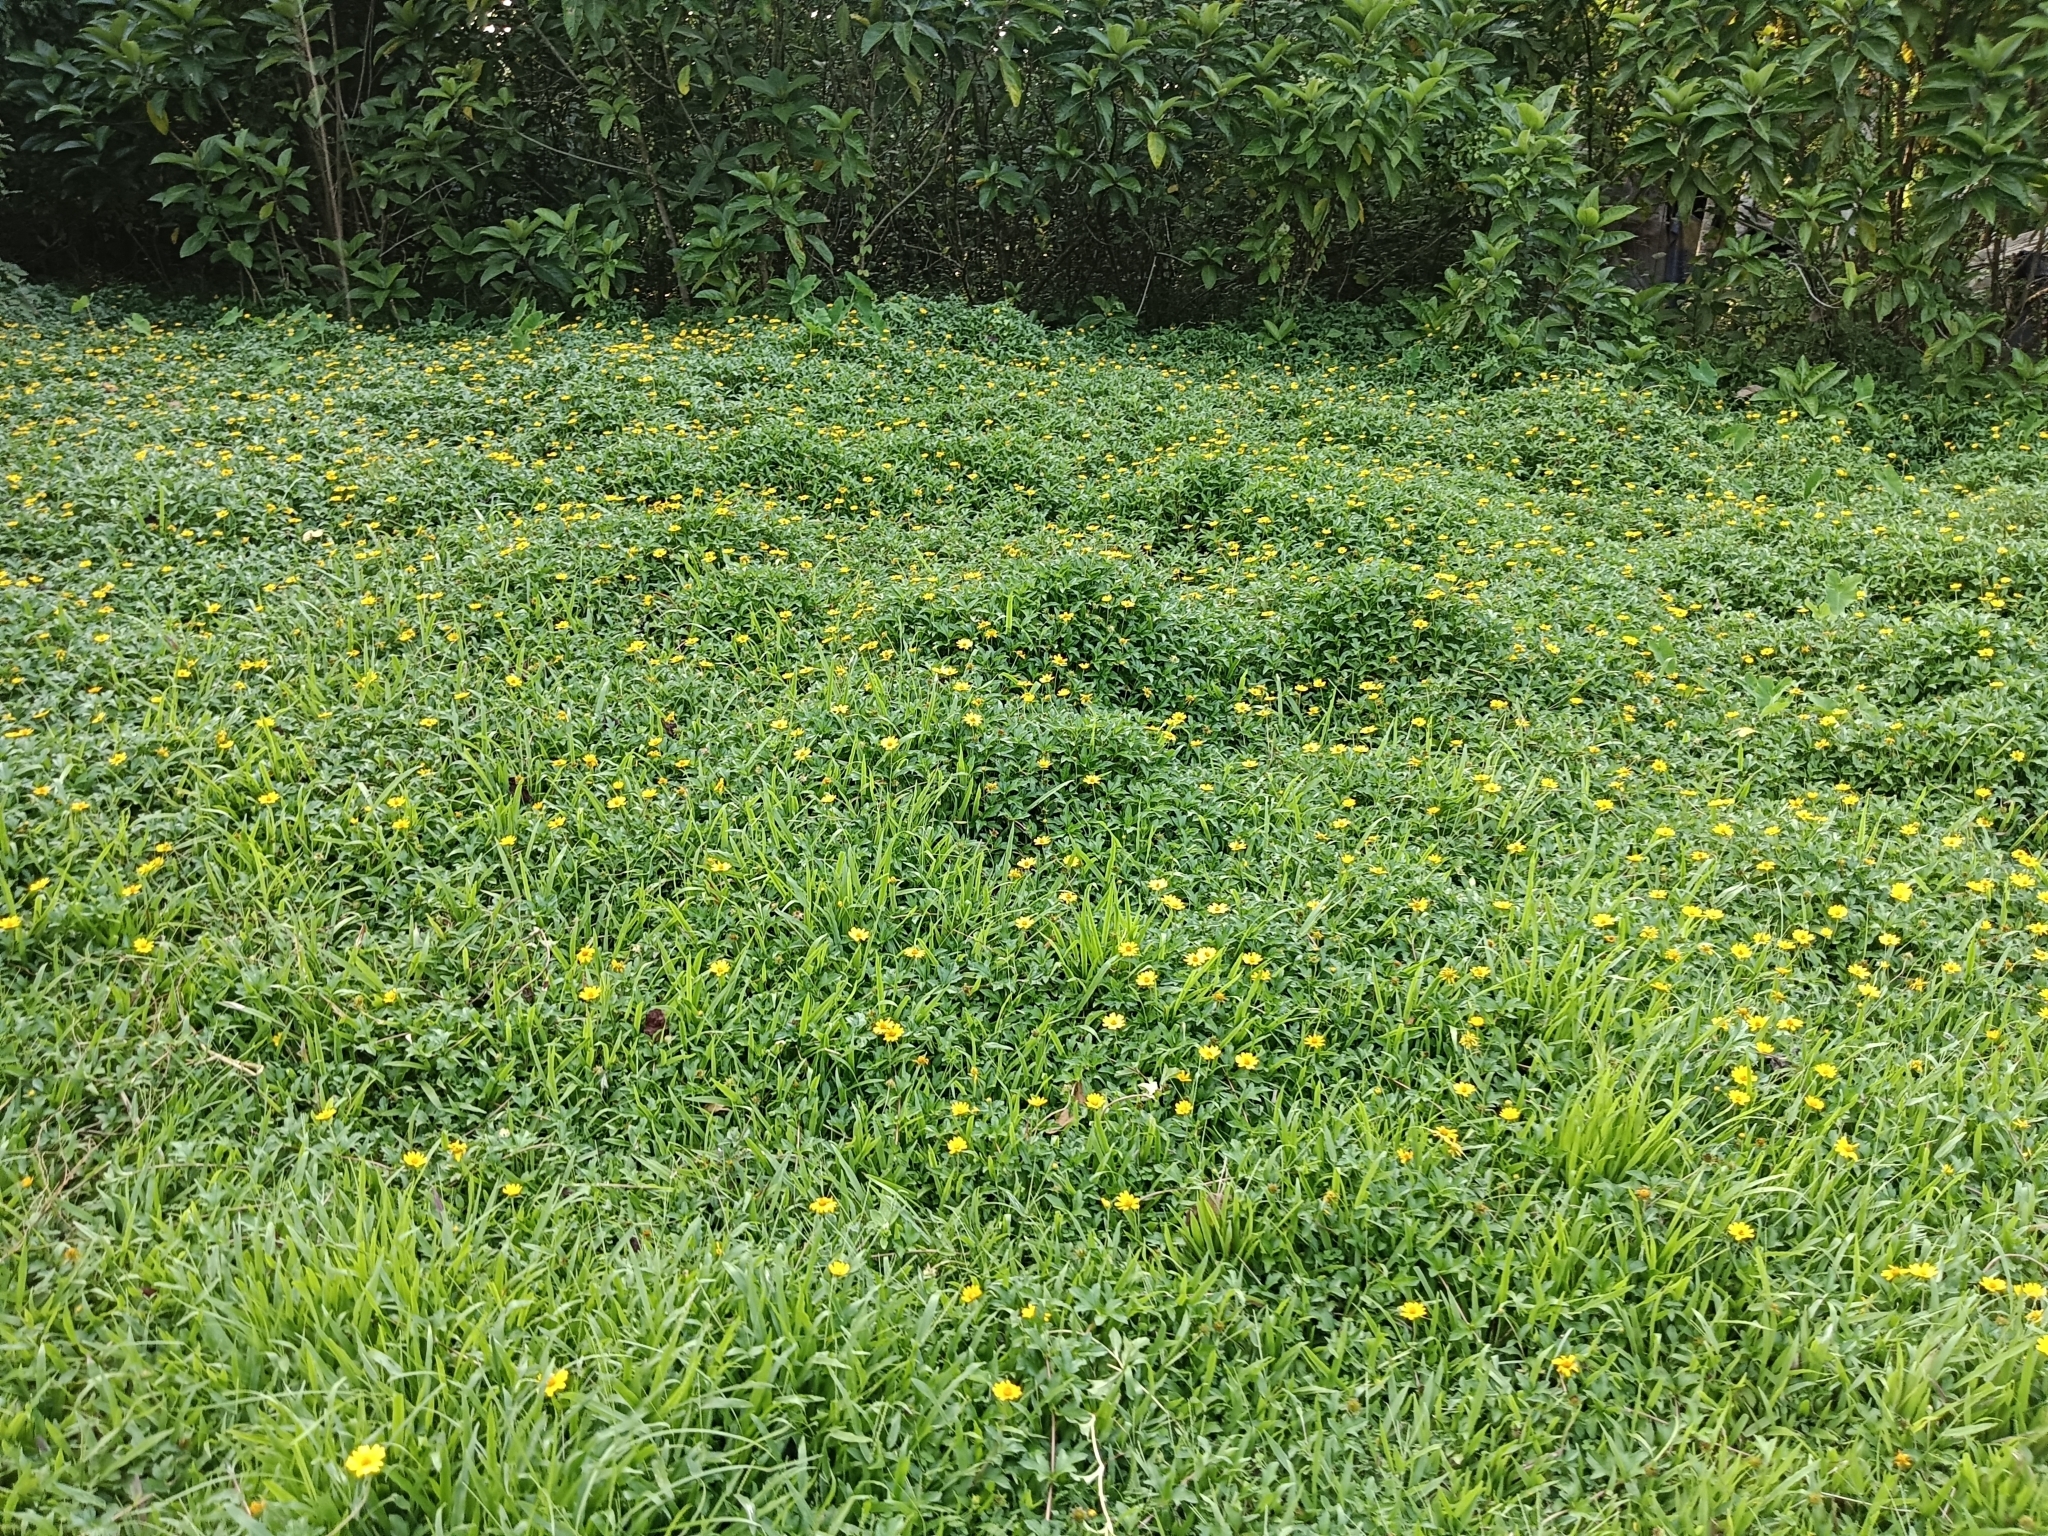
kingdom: Plantae
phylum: Tracheophyta
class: Magnoliopsida
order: Asterales
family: Asteraceae
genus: Sphagneticola
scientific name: Sphagneticola trilobata
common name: Bay biscayne creeping-oxeye
